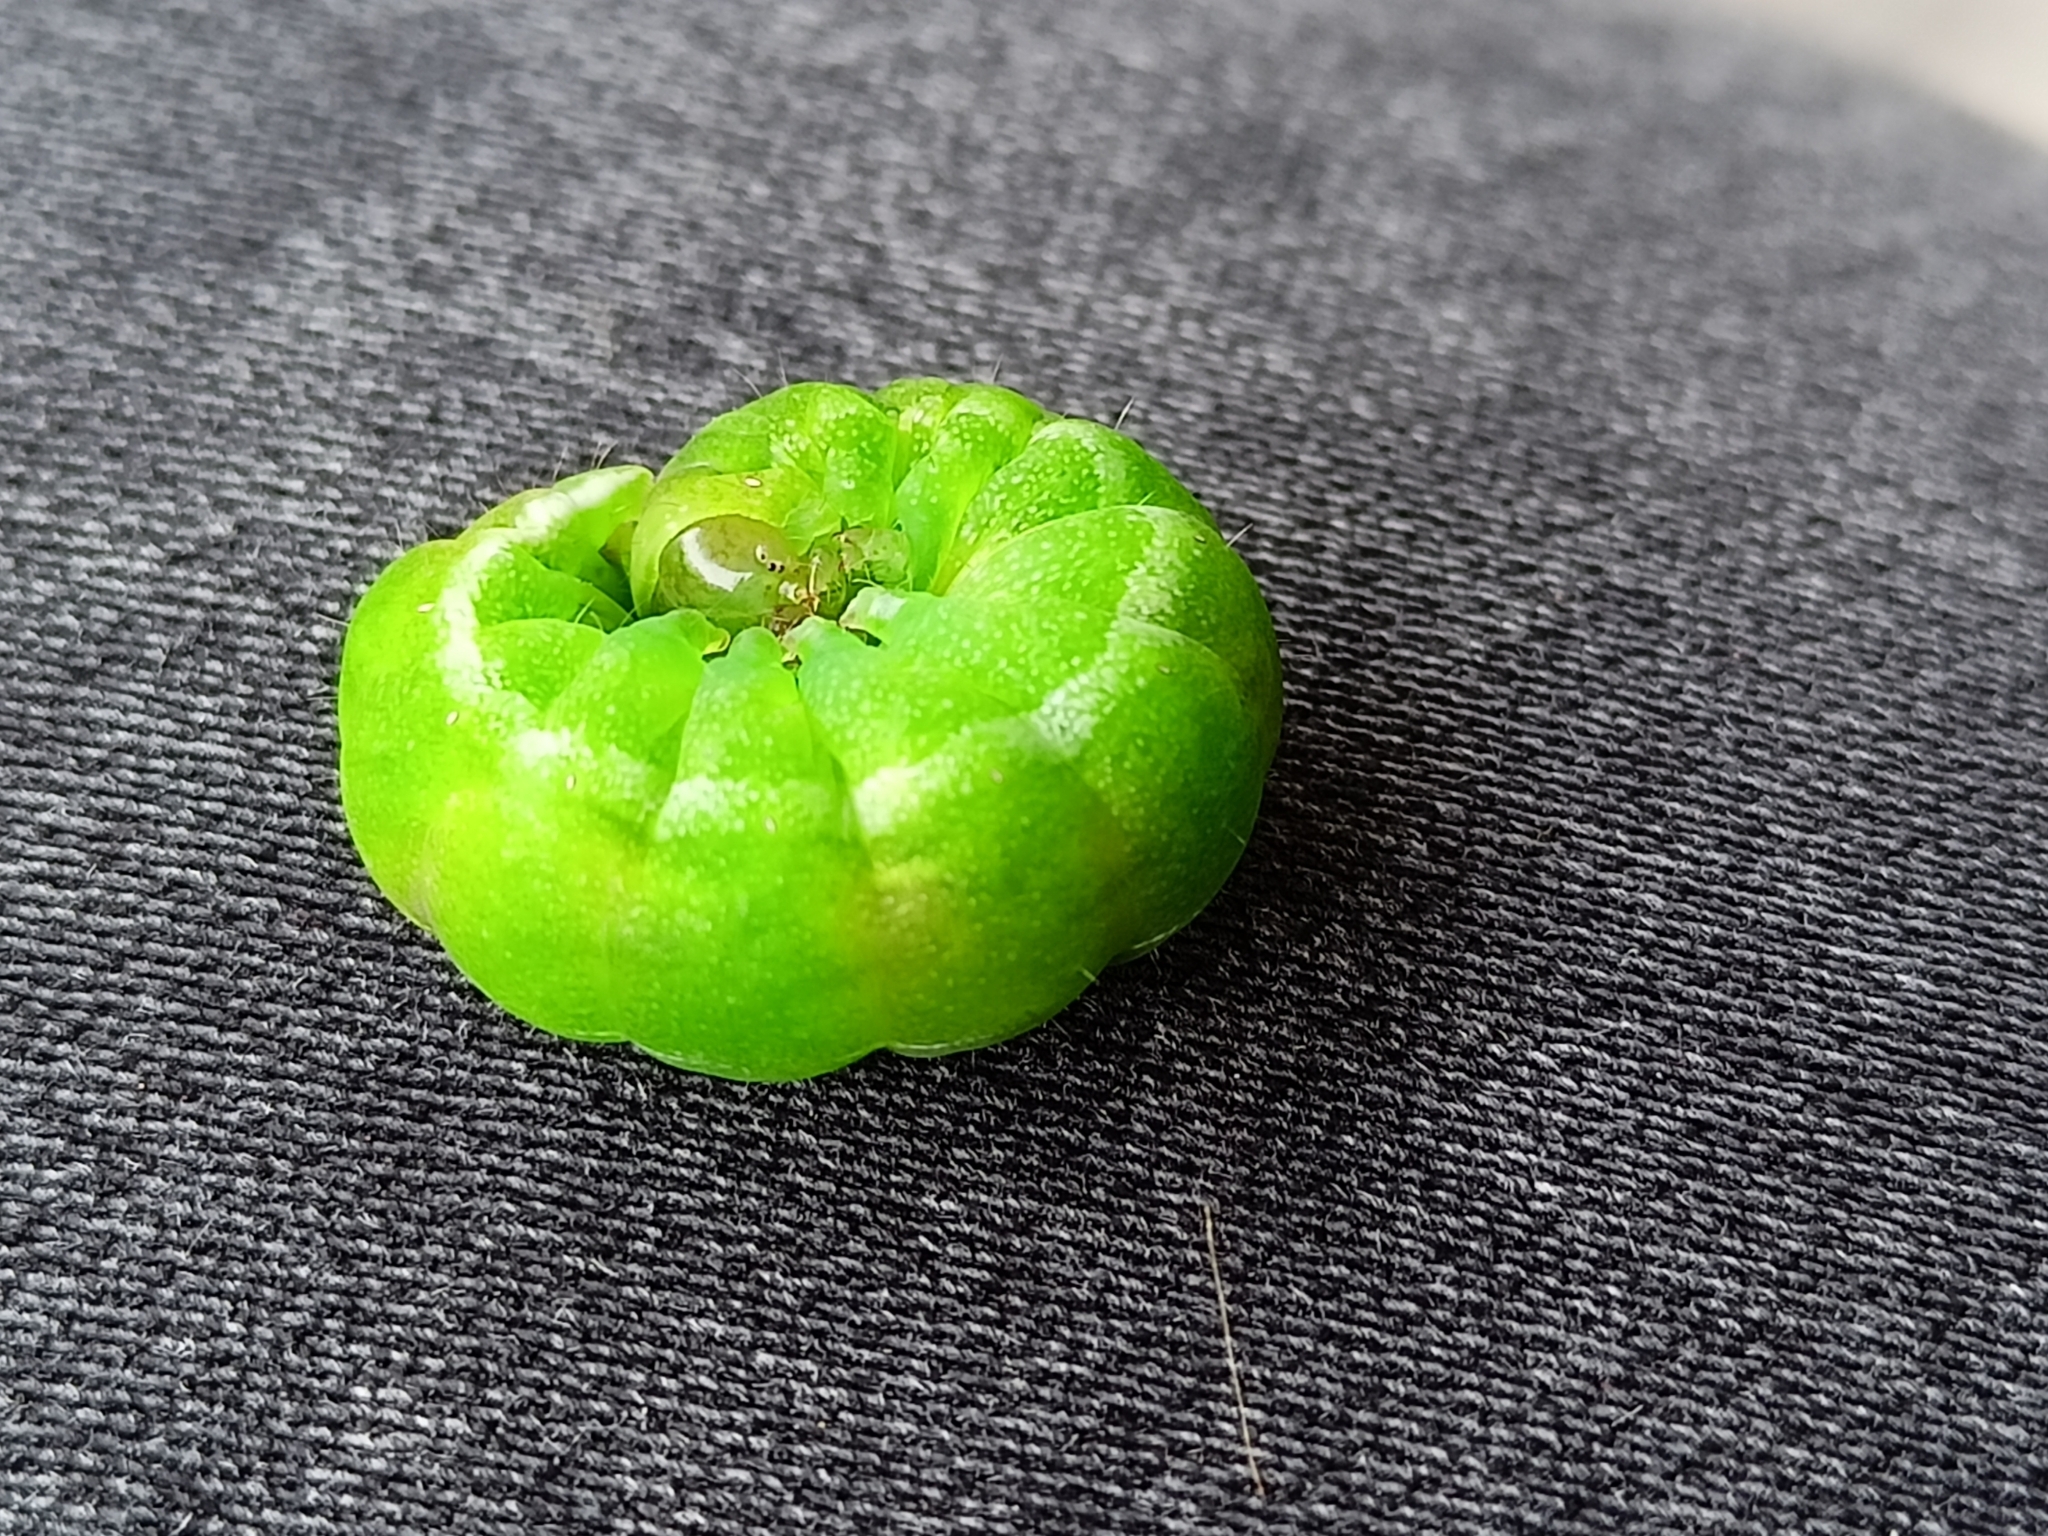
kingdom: Animalia
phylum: Arthropoda
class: Insecta
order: Lepidoptera
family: Noctuidae
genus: Phlogophora
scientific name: Phlogophora meticulosa
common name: Angle shades
